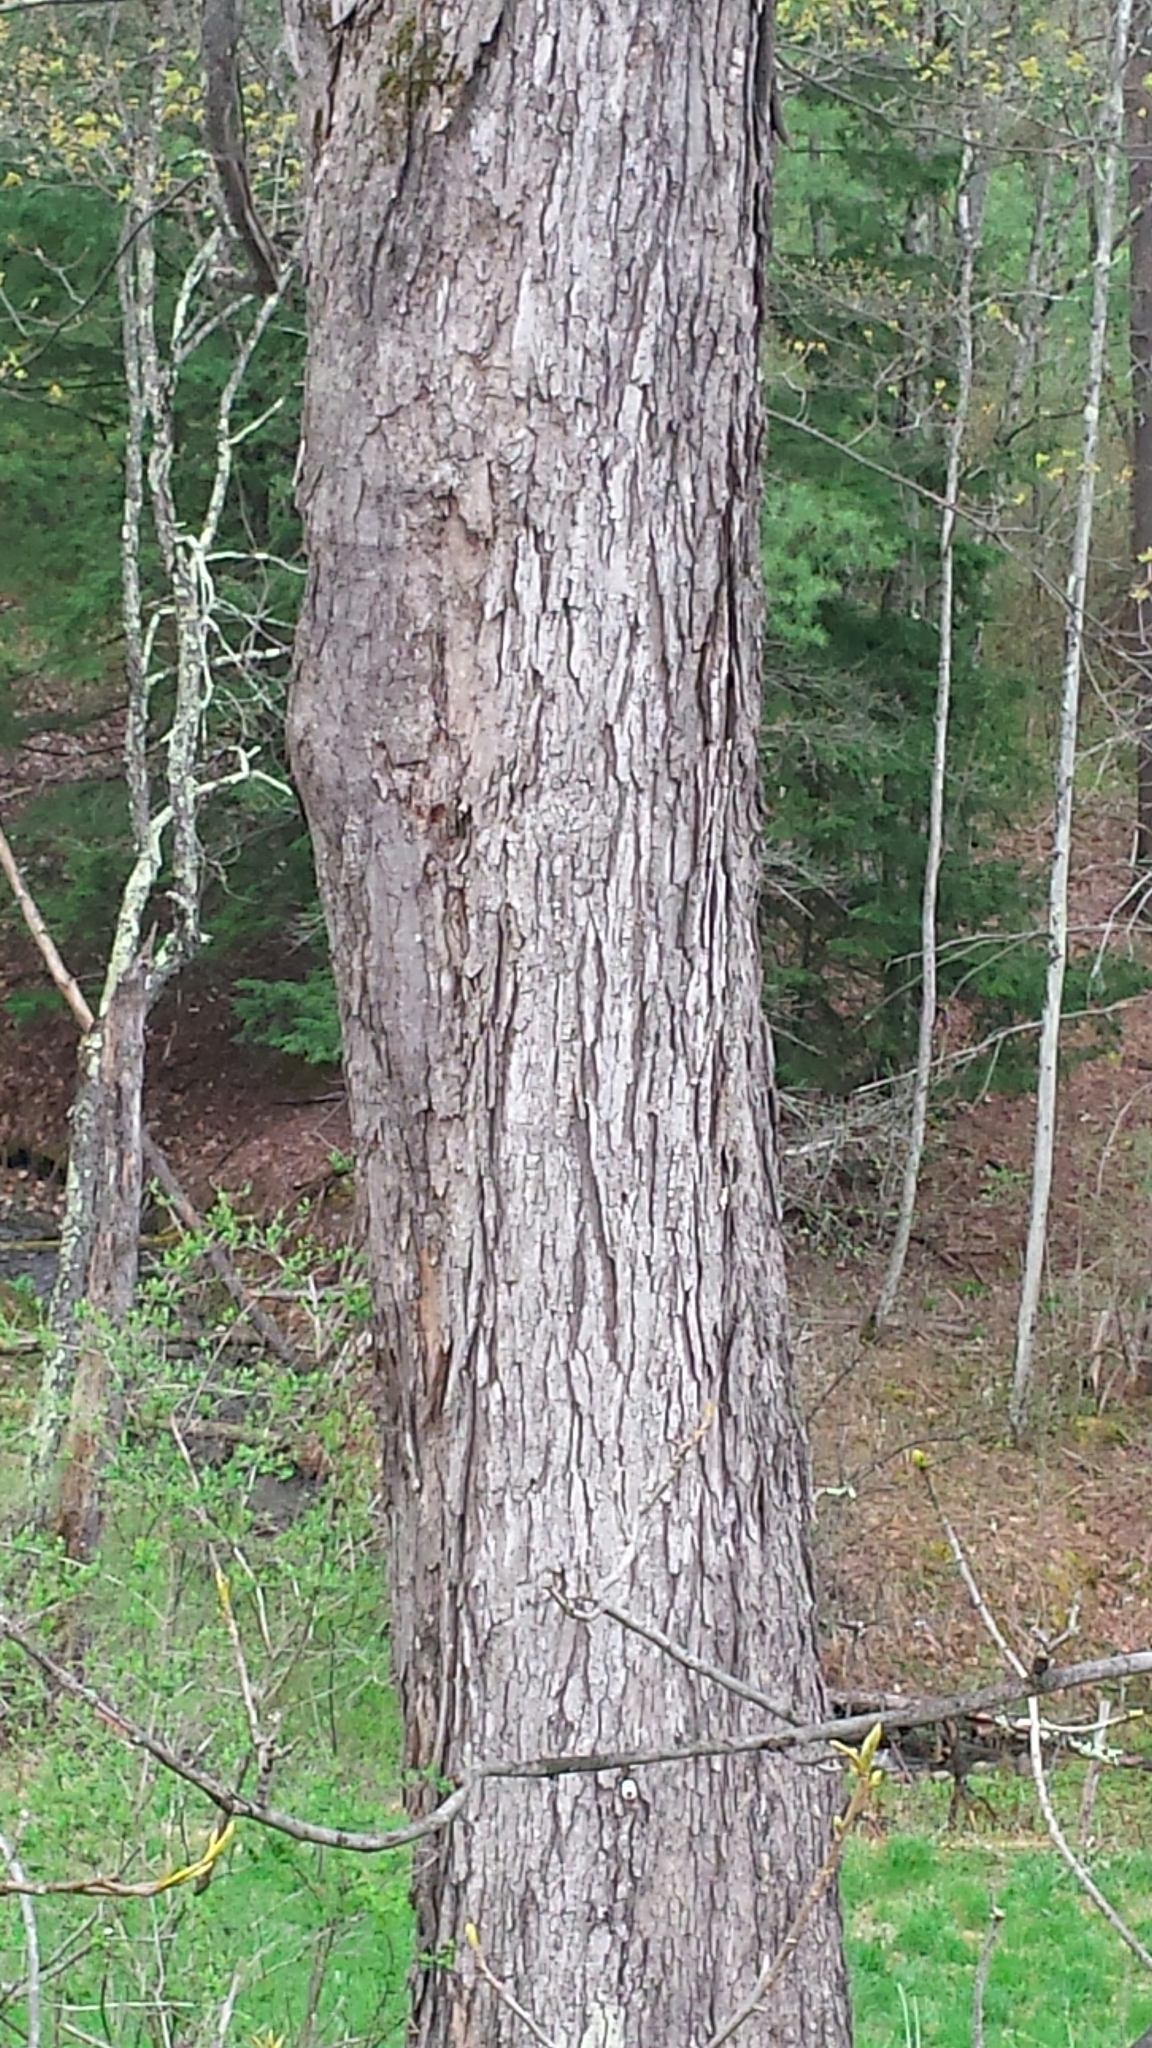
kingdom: Plantae
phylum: Tracheophyta
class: Magnoliopsida
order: Sapindales
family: Sapindaceae
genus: Acer
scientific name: Acer saccharum
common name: Sugar maple
